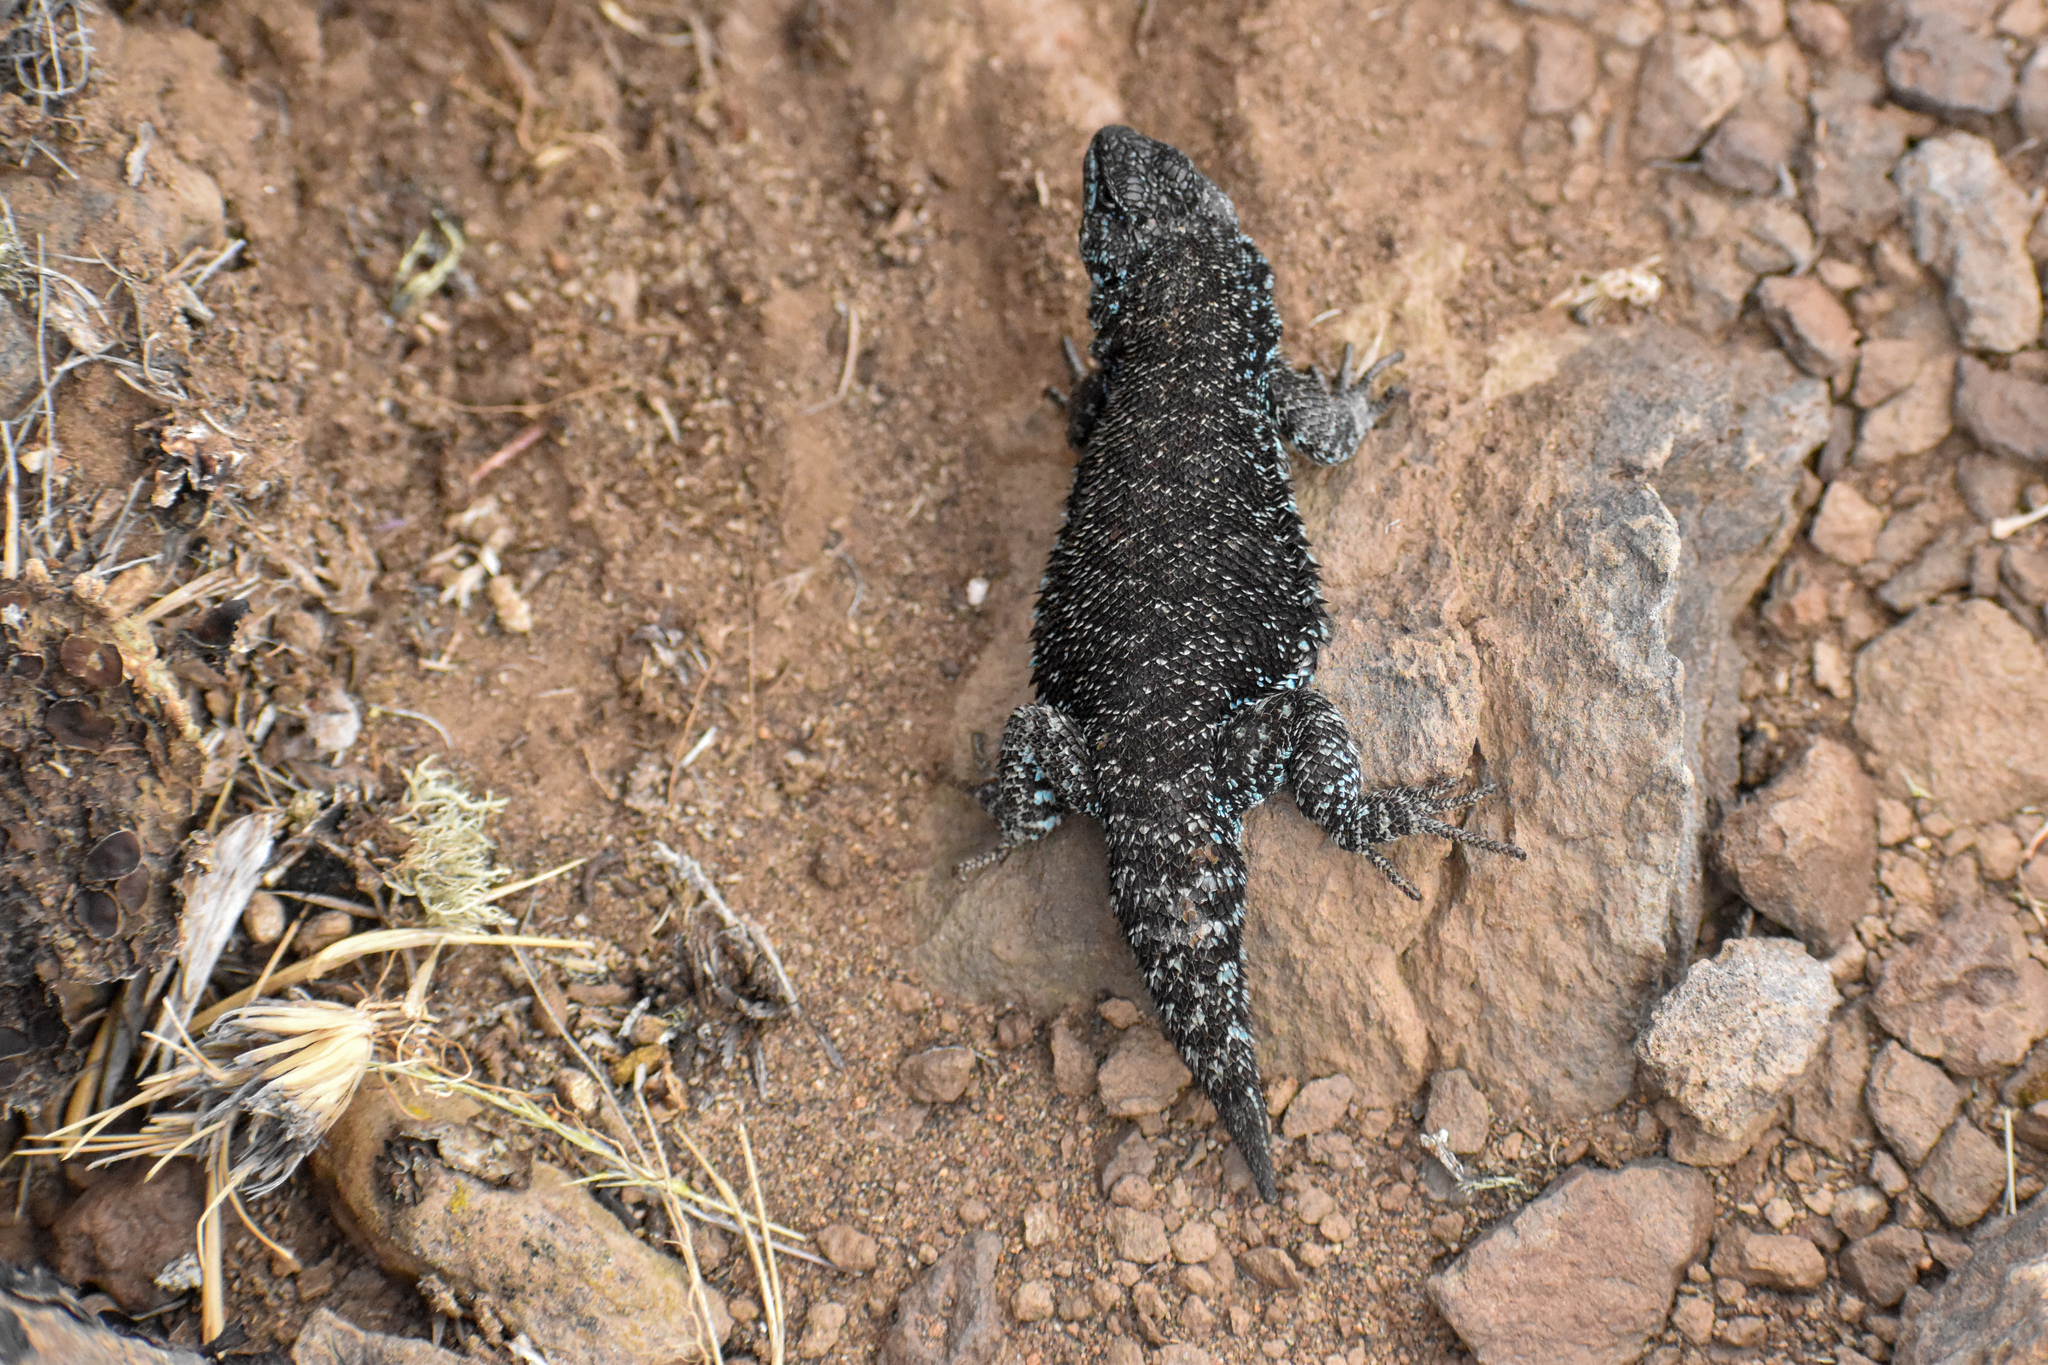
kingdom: Animalia
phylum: Chordata
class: Squamata
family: Liolaemidae
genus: Liolaemus
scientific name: Liolaemus silvanae
